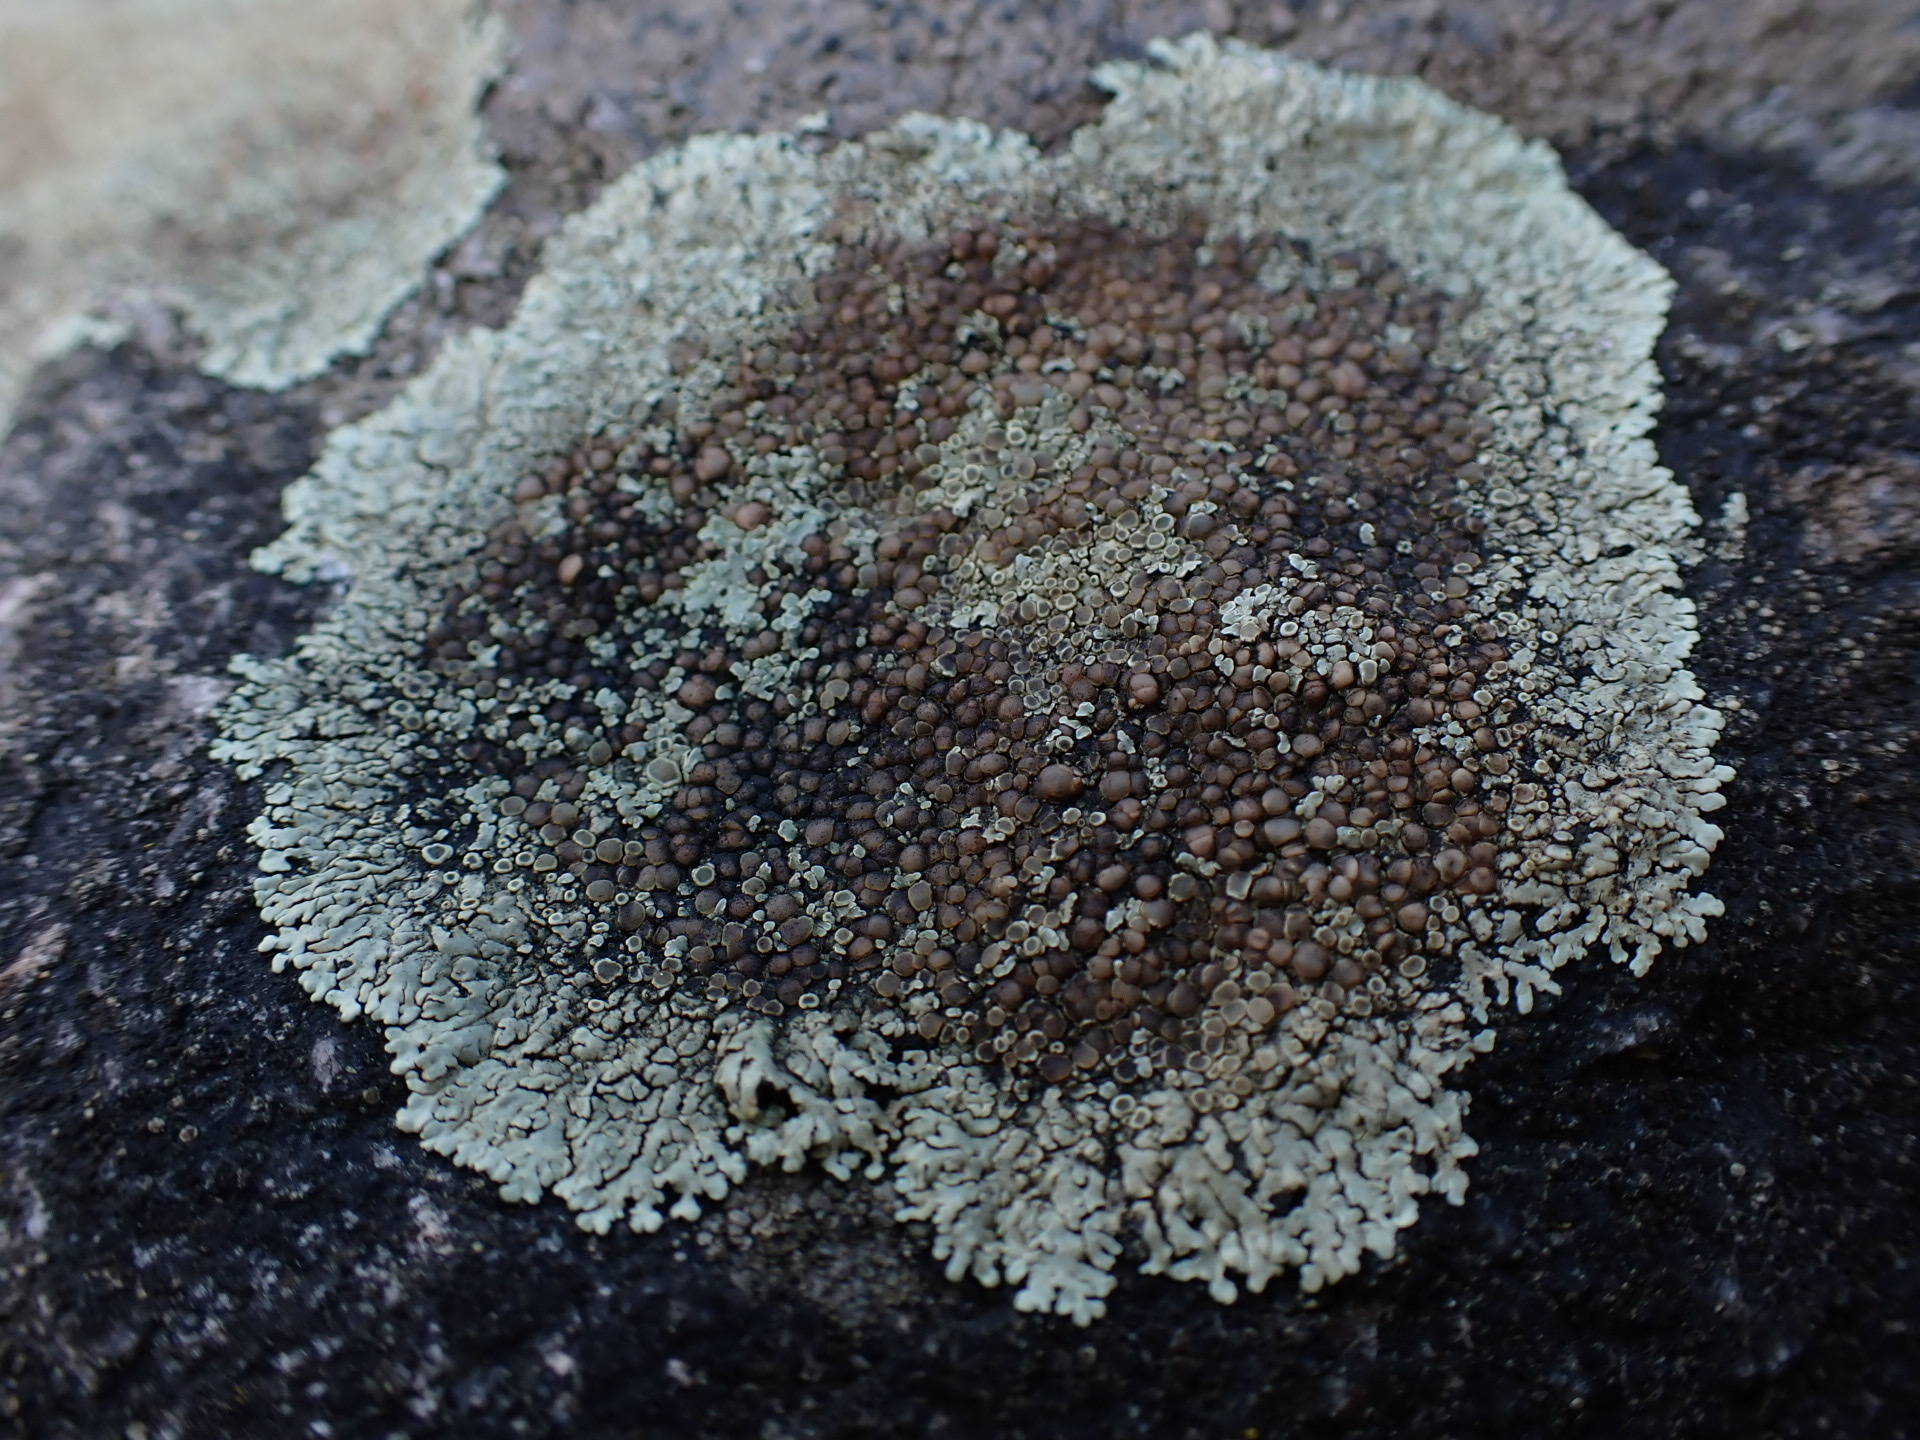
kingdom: Fungi
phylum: Ascomycota
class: Lecanoromycetes
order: Lecanorales
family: Lecanoraceae
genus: Protoparmeliopsis
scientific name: Protoparmeliopsis muralis
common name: Stonewall rim lichen
